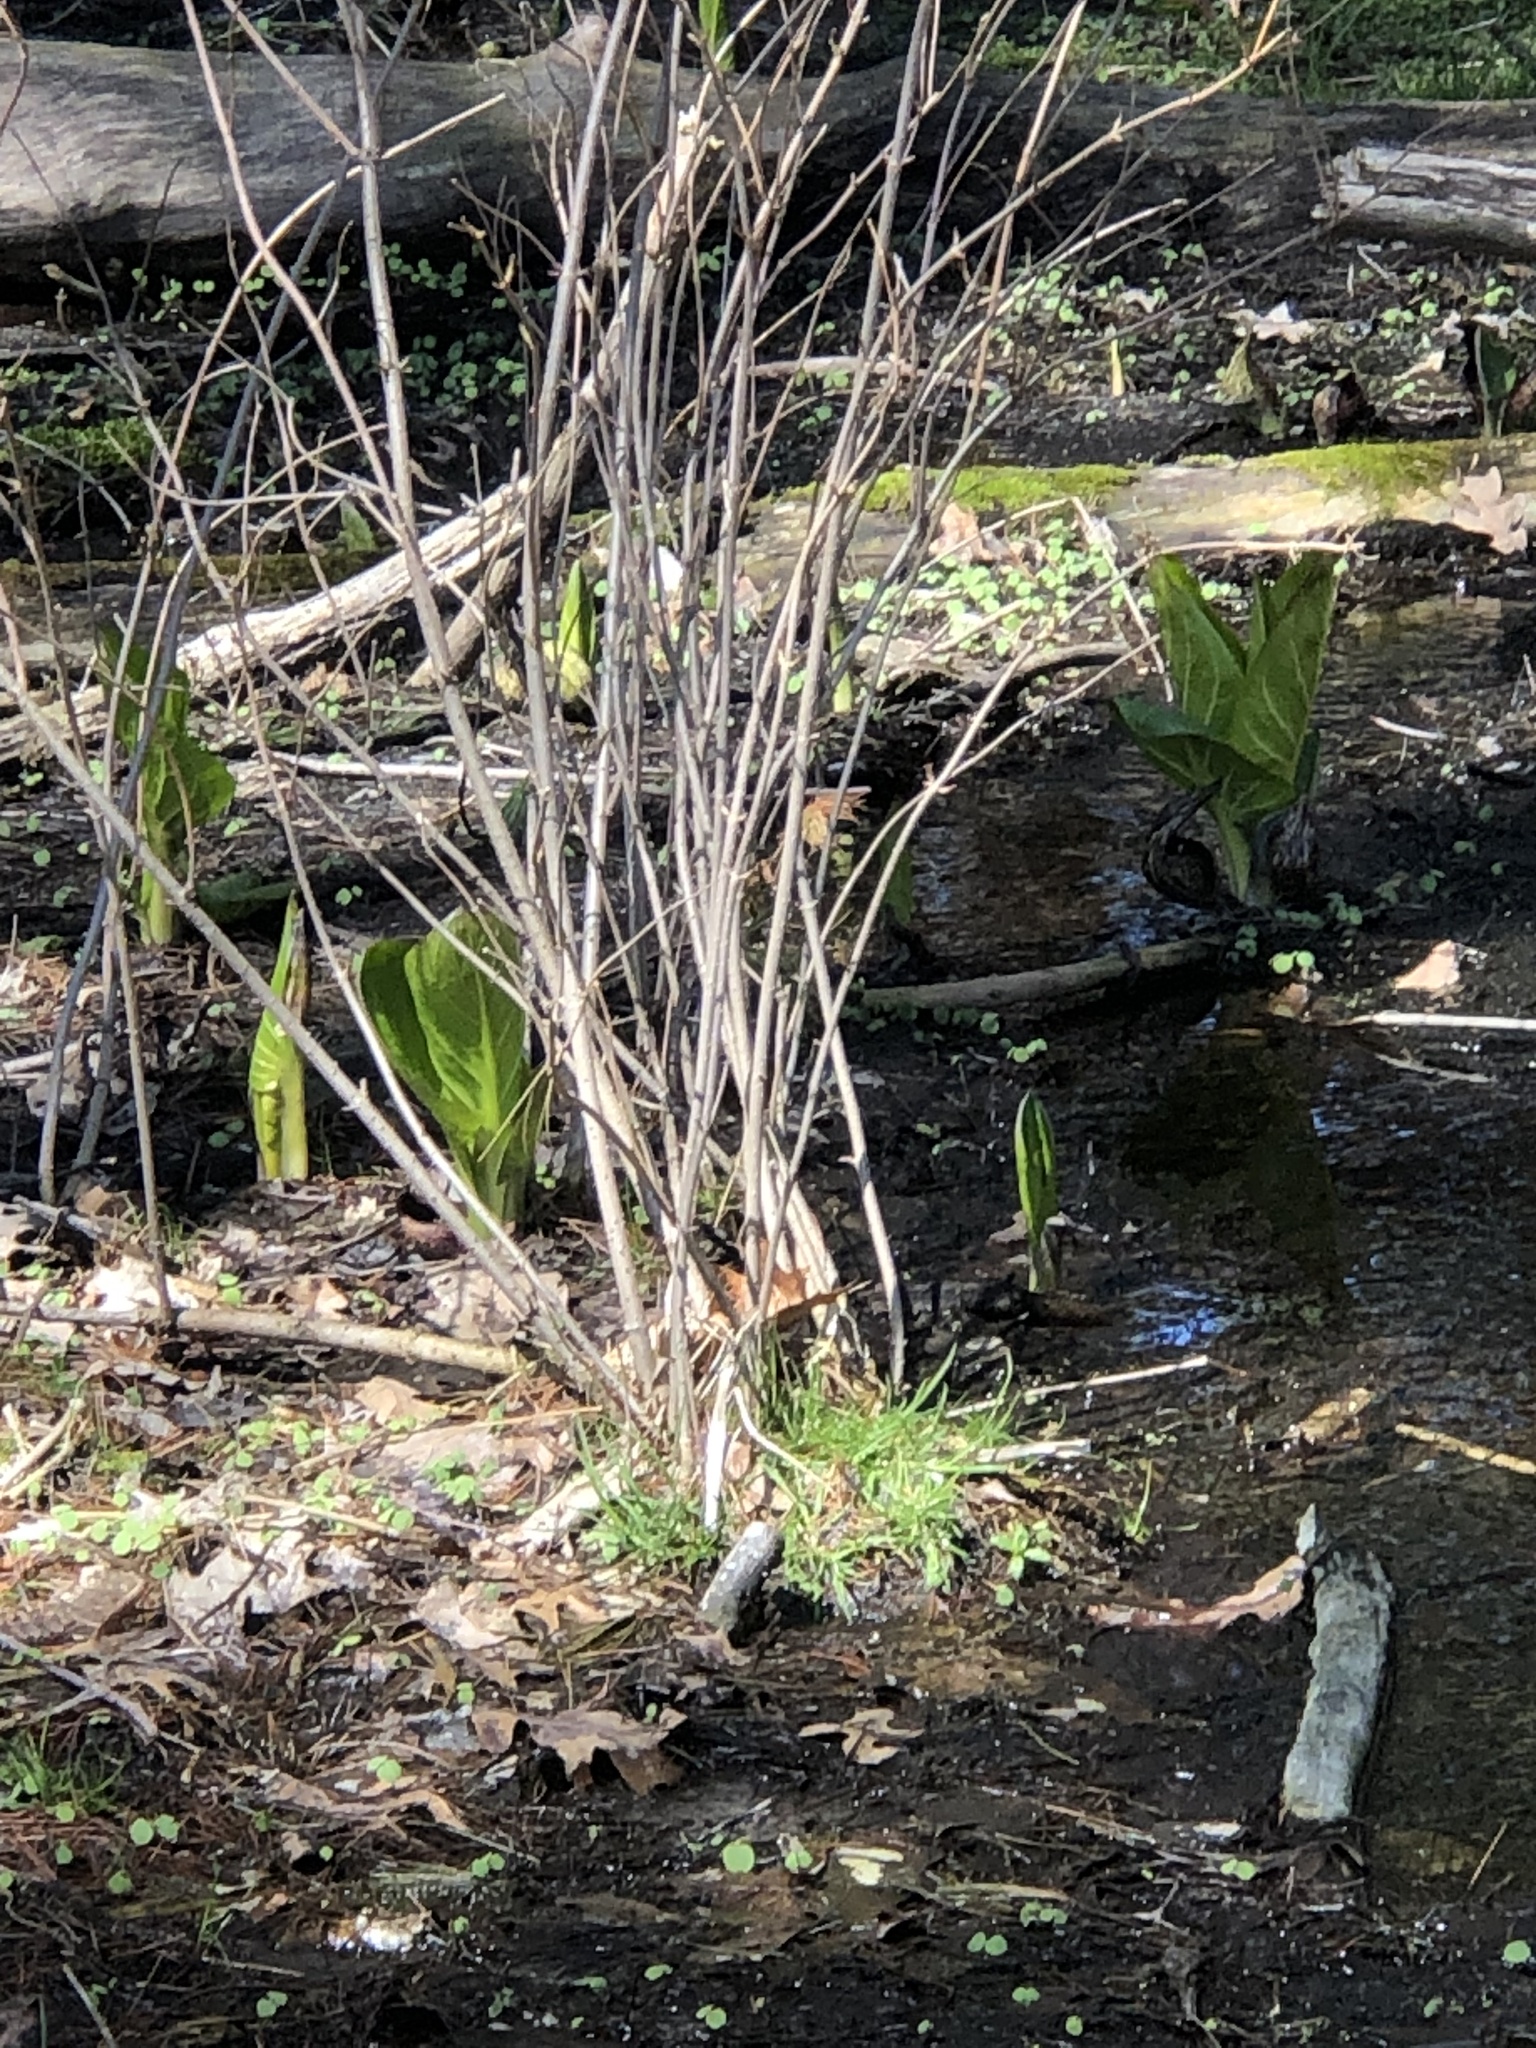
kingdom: Plantae
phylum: Tracheophyta
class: Liliopsida
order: Alismatales
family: Araceae
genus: Symplocarpus
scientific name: Symplocarpus foetidus
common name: Eastern skunk cabbage
